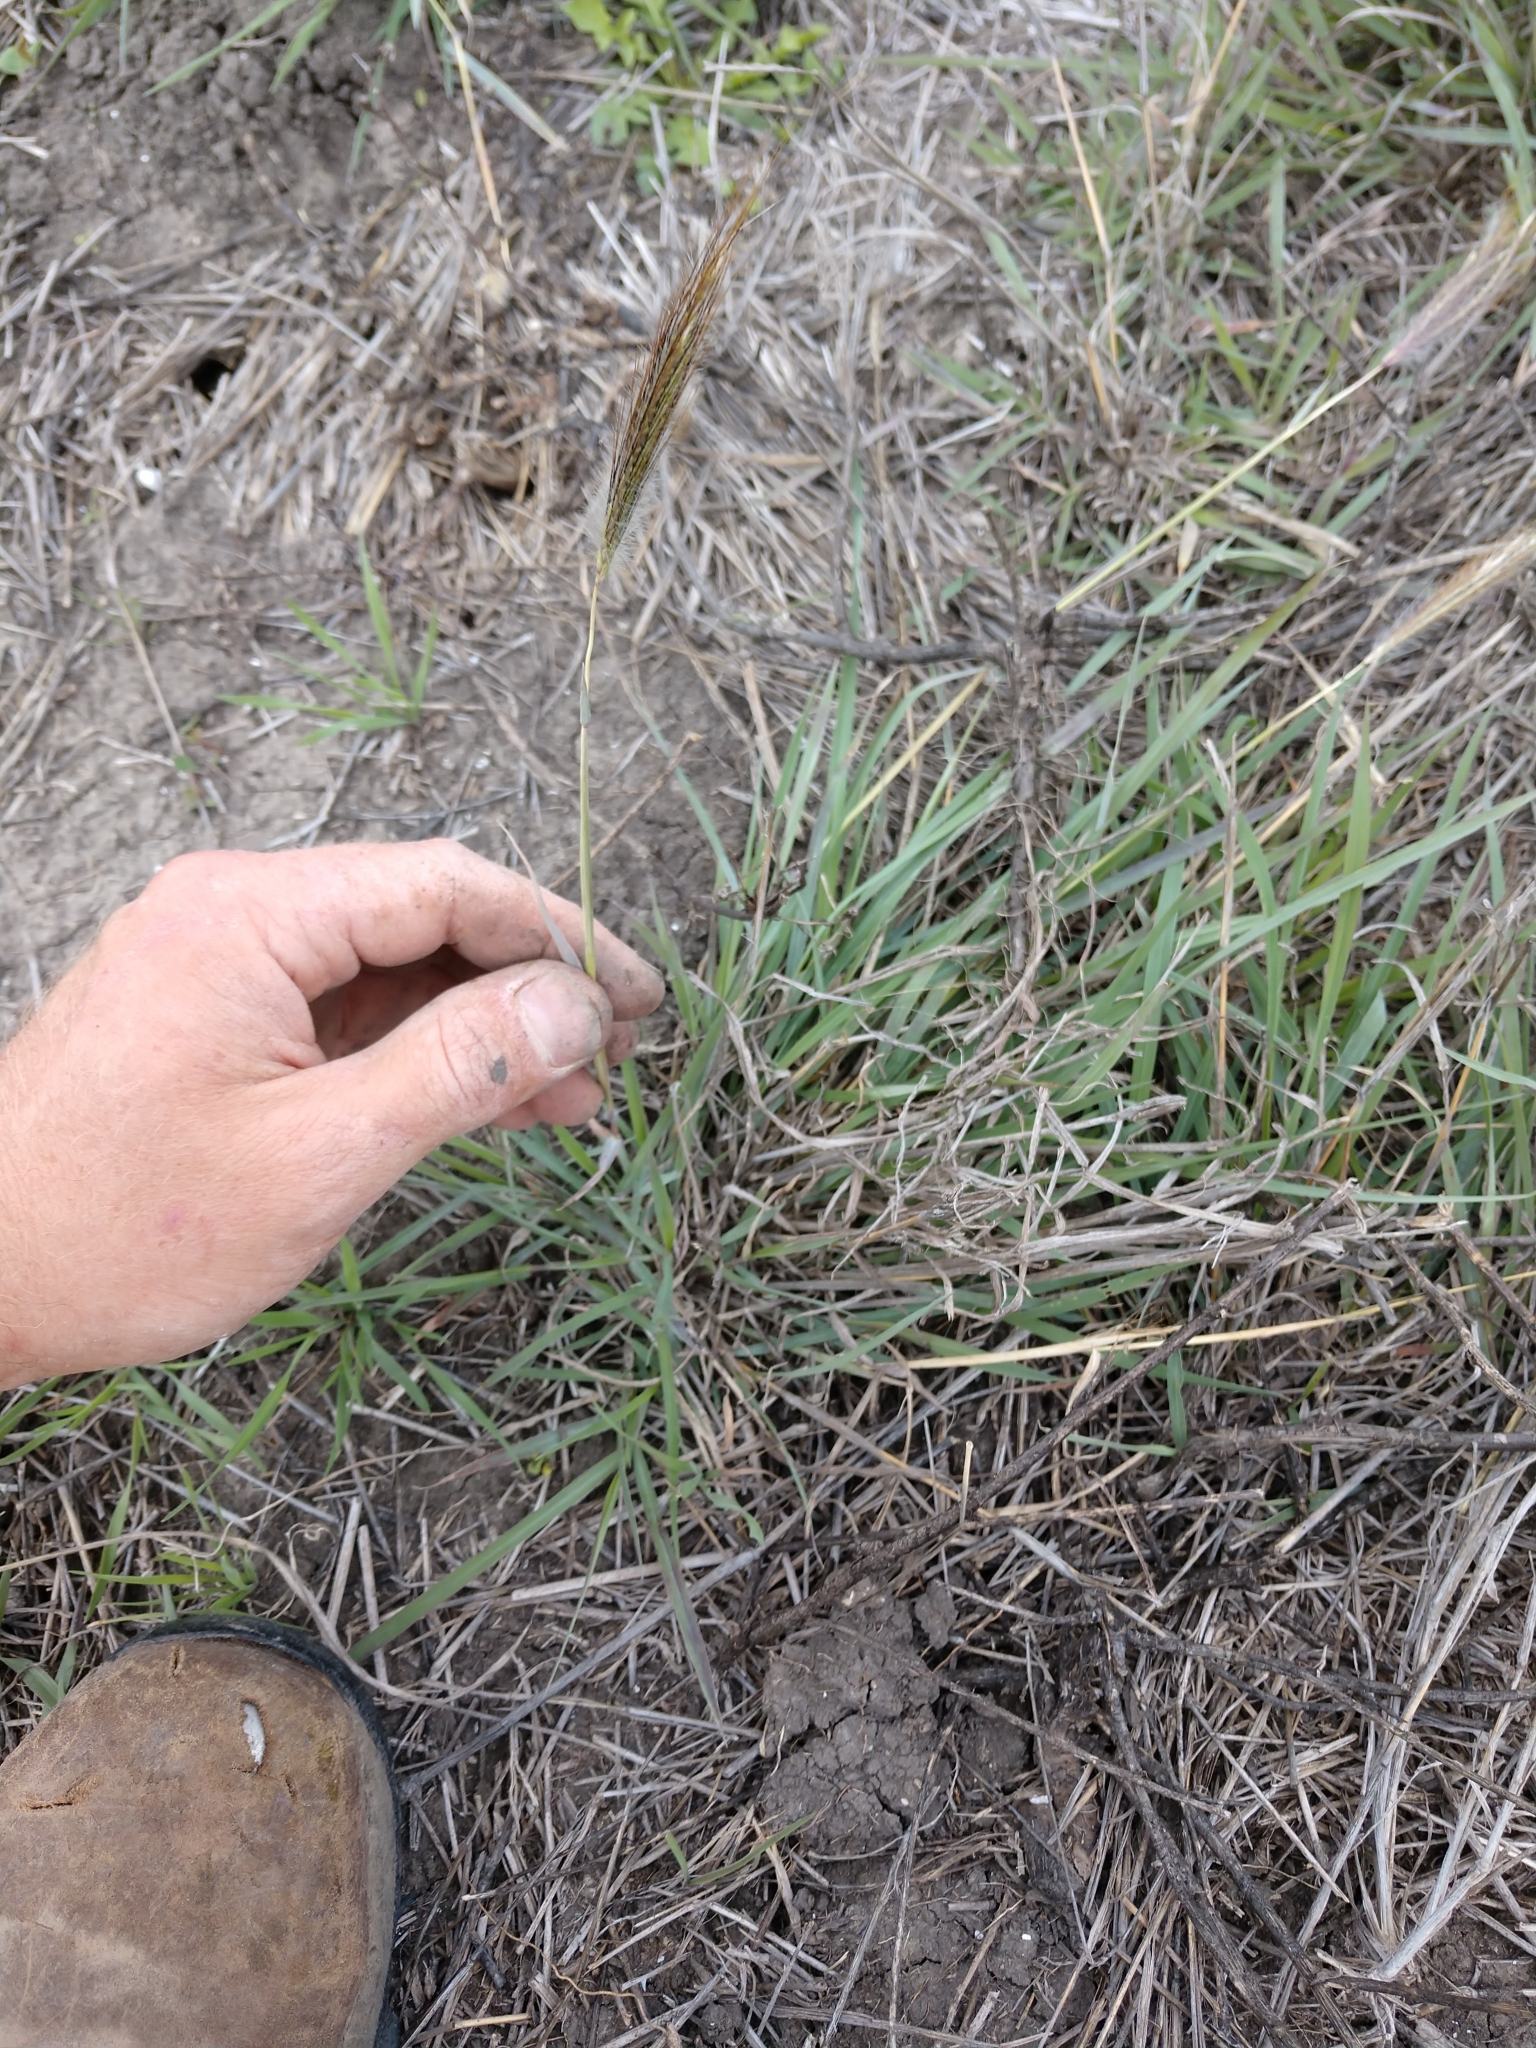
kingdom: Plantae
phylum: Tracheophyta
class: Liliopsida
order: Poales
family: Poaceae
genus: Dichanthium
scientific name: Dichanthium sericeum
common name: Silky bluestem
